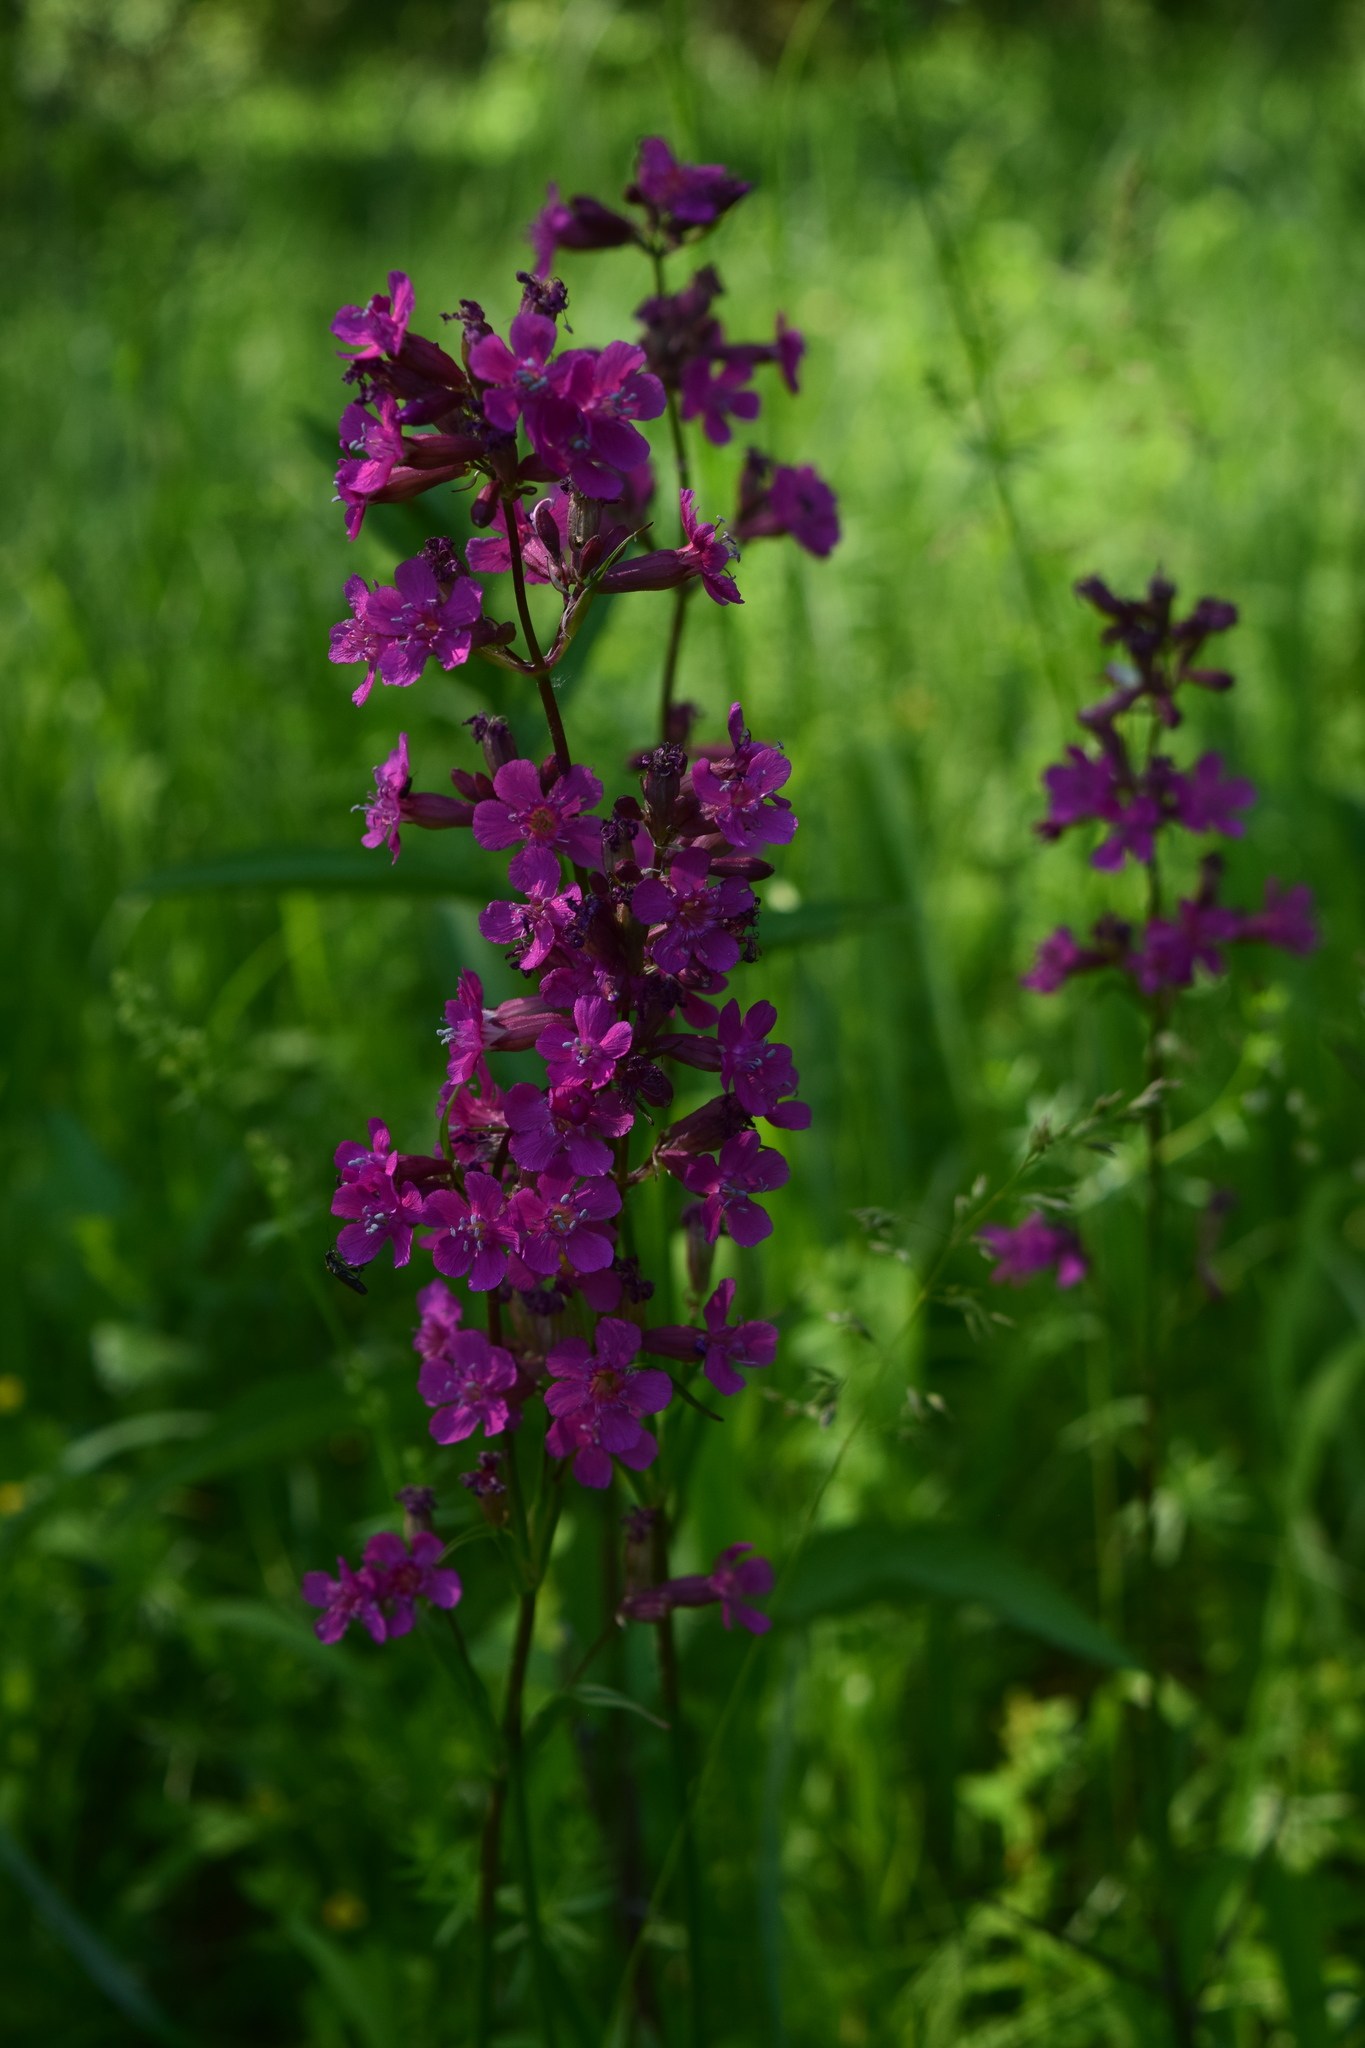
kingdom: Plantae
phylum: Tracheophyta
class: Magnoliopsida
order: Caryophyllales
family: Caryophyllaceae
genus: Viscaria
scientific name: Viscaria vulgaris
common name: Clammy campion
